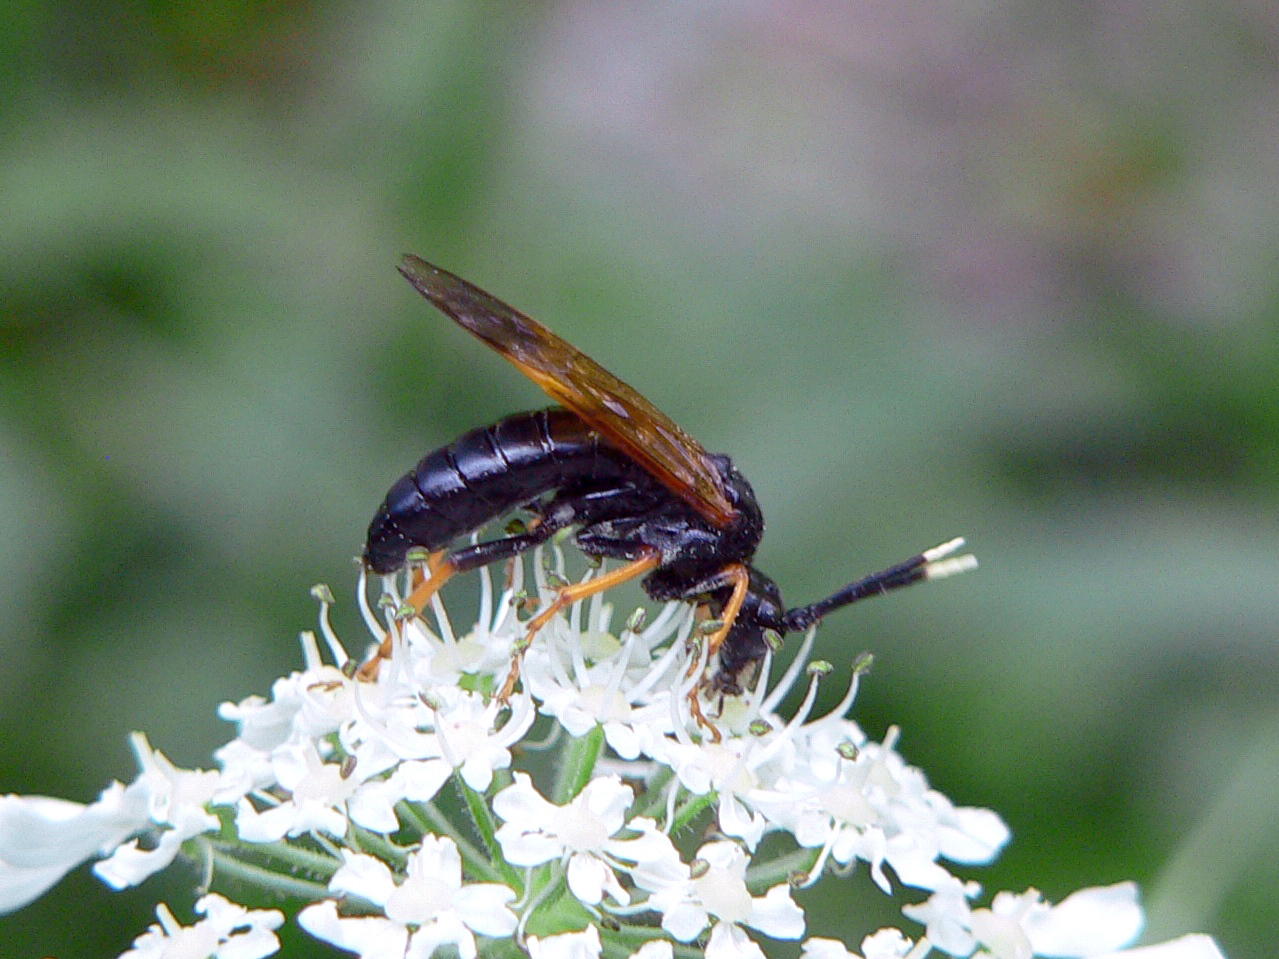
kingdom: Animalia
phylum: Arthropoda
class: Insecta
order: Hymenoptera
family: Tenthredinidae
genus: Tenthredo
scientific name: Tenthredo crassa
